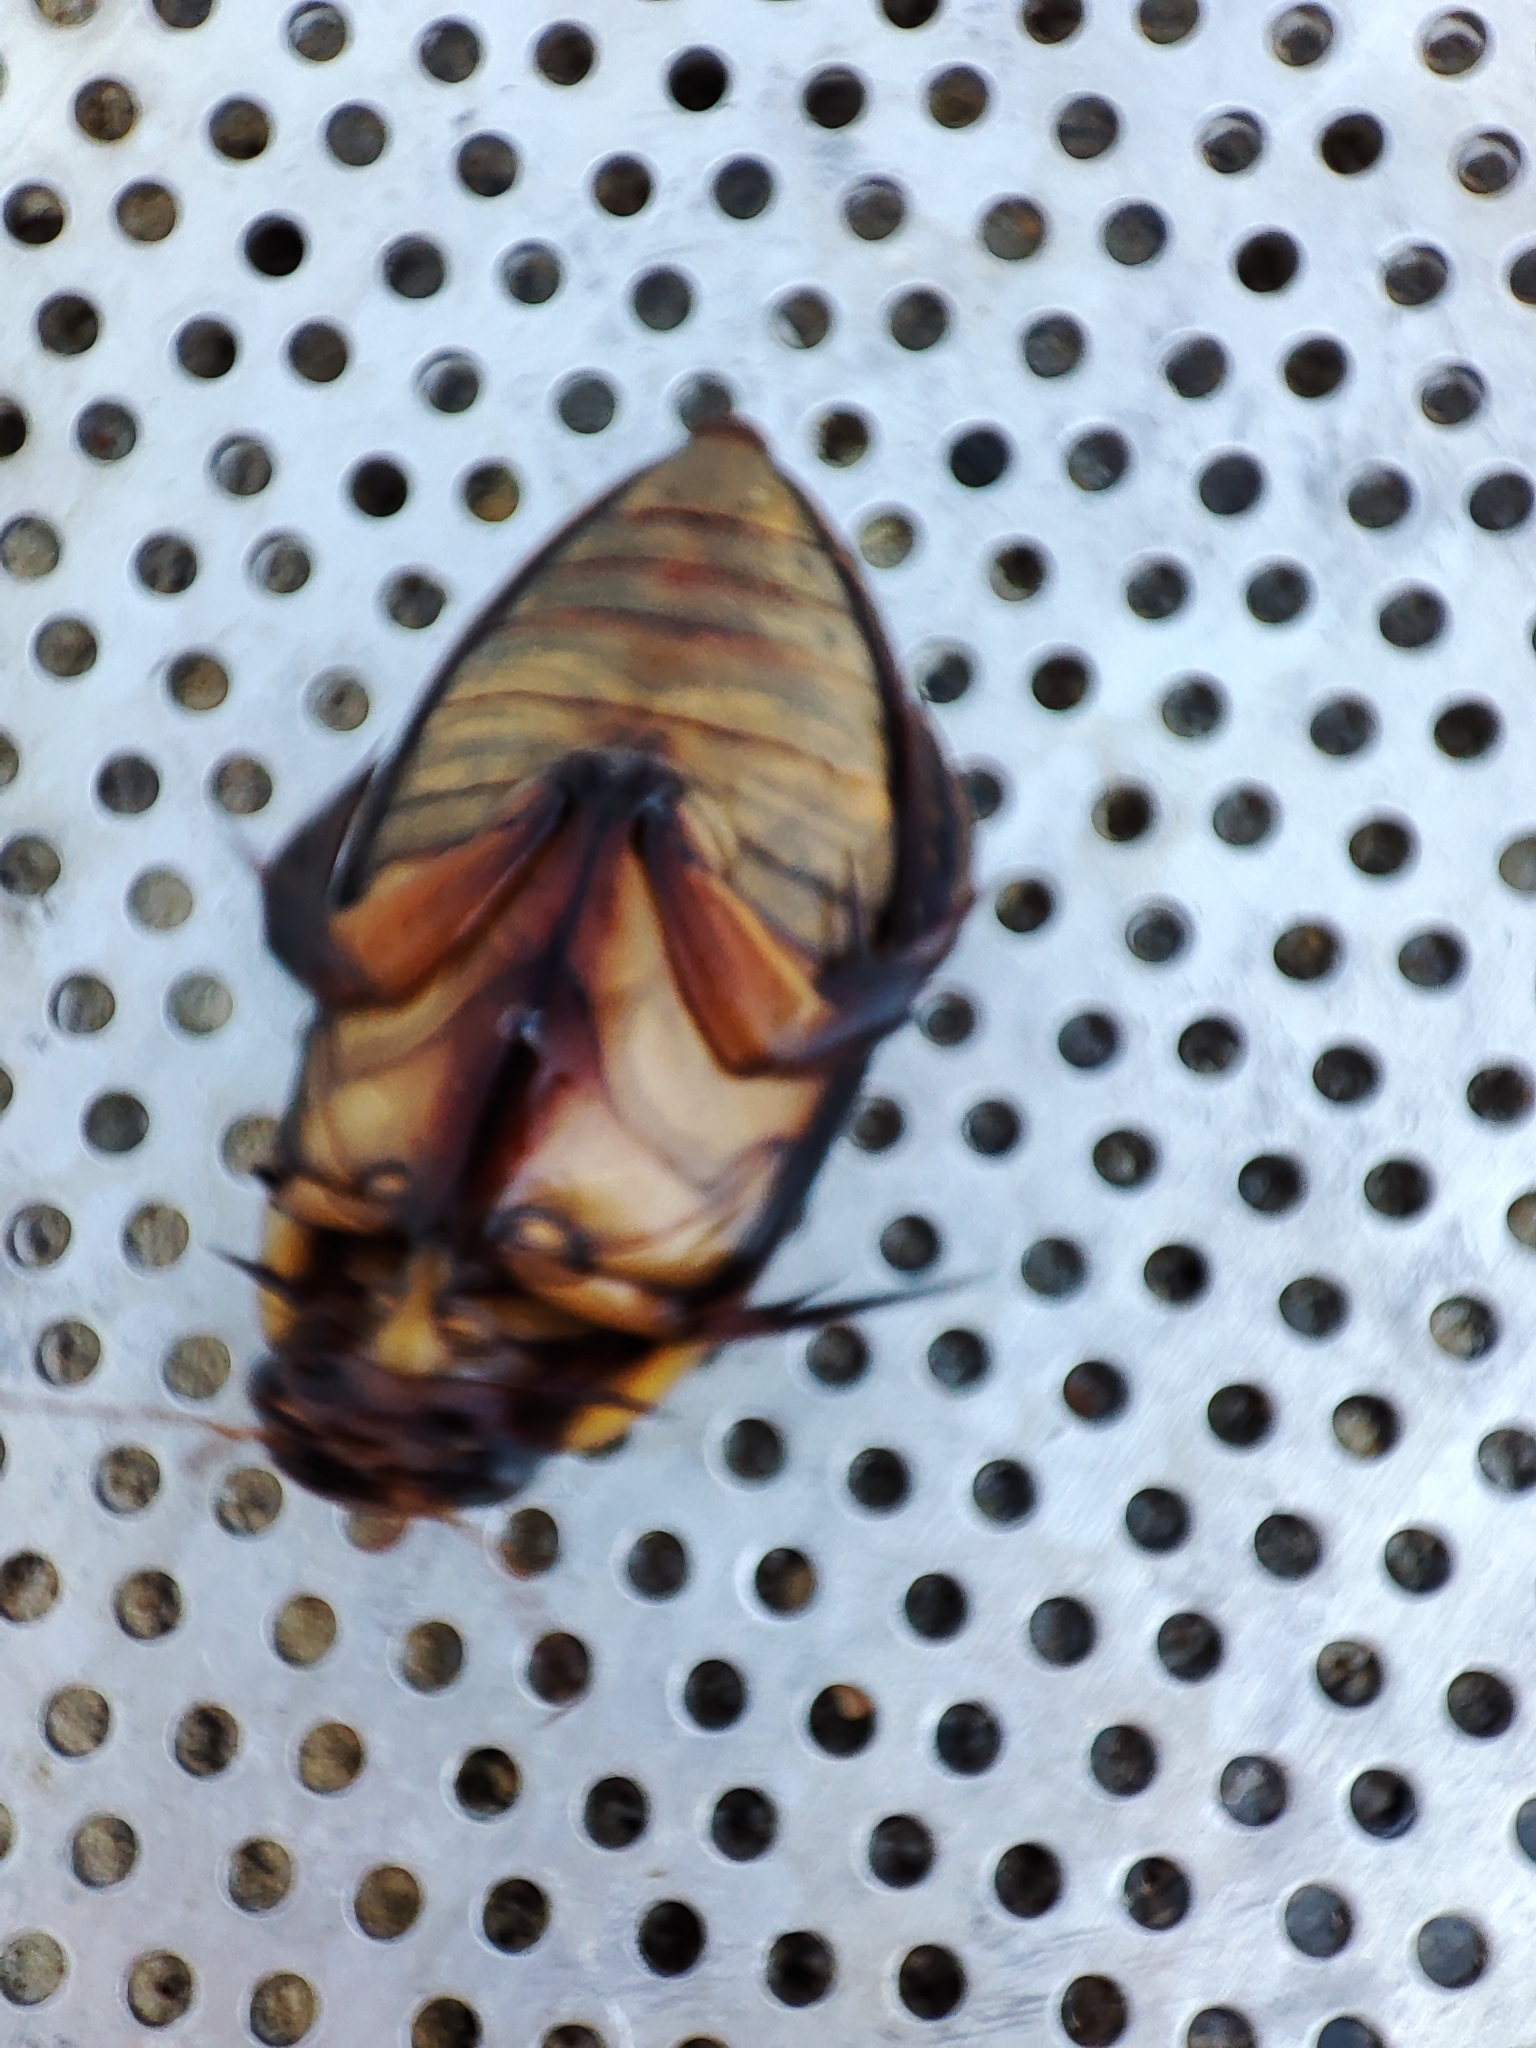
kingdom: Animalia
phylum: Arthropoda
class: Insecta
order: Coleoptera
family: Dytiscidae
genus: Cybister
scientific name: Cybister lateralimarginalis
